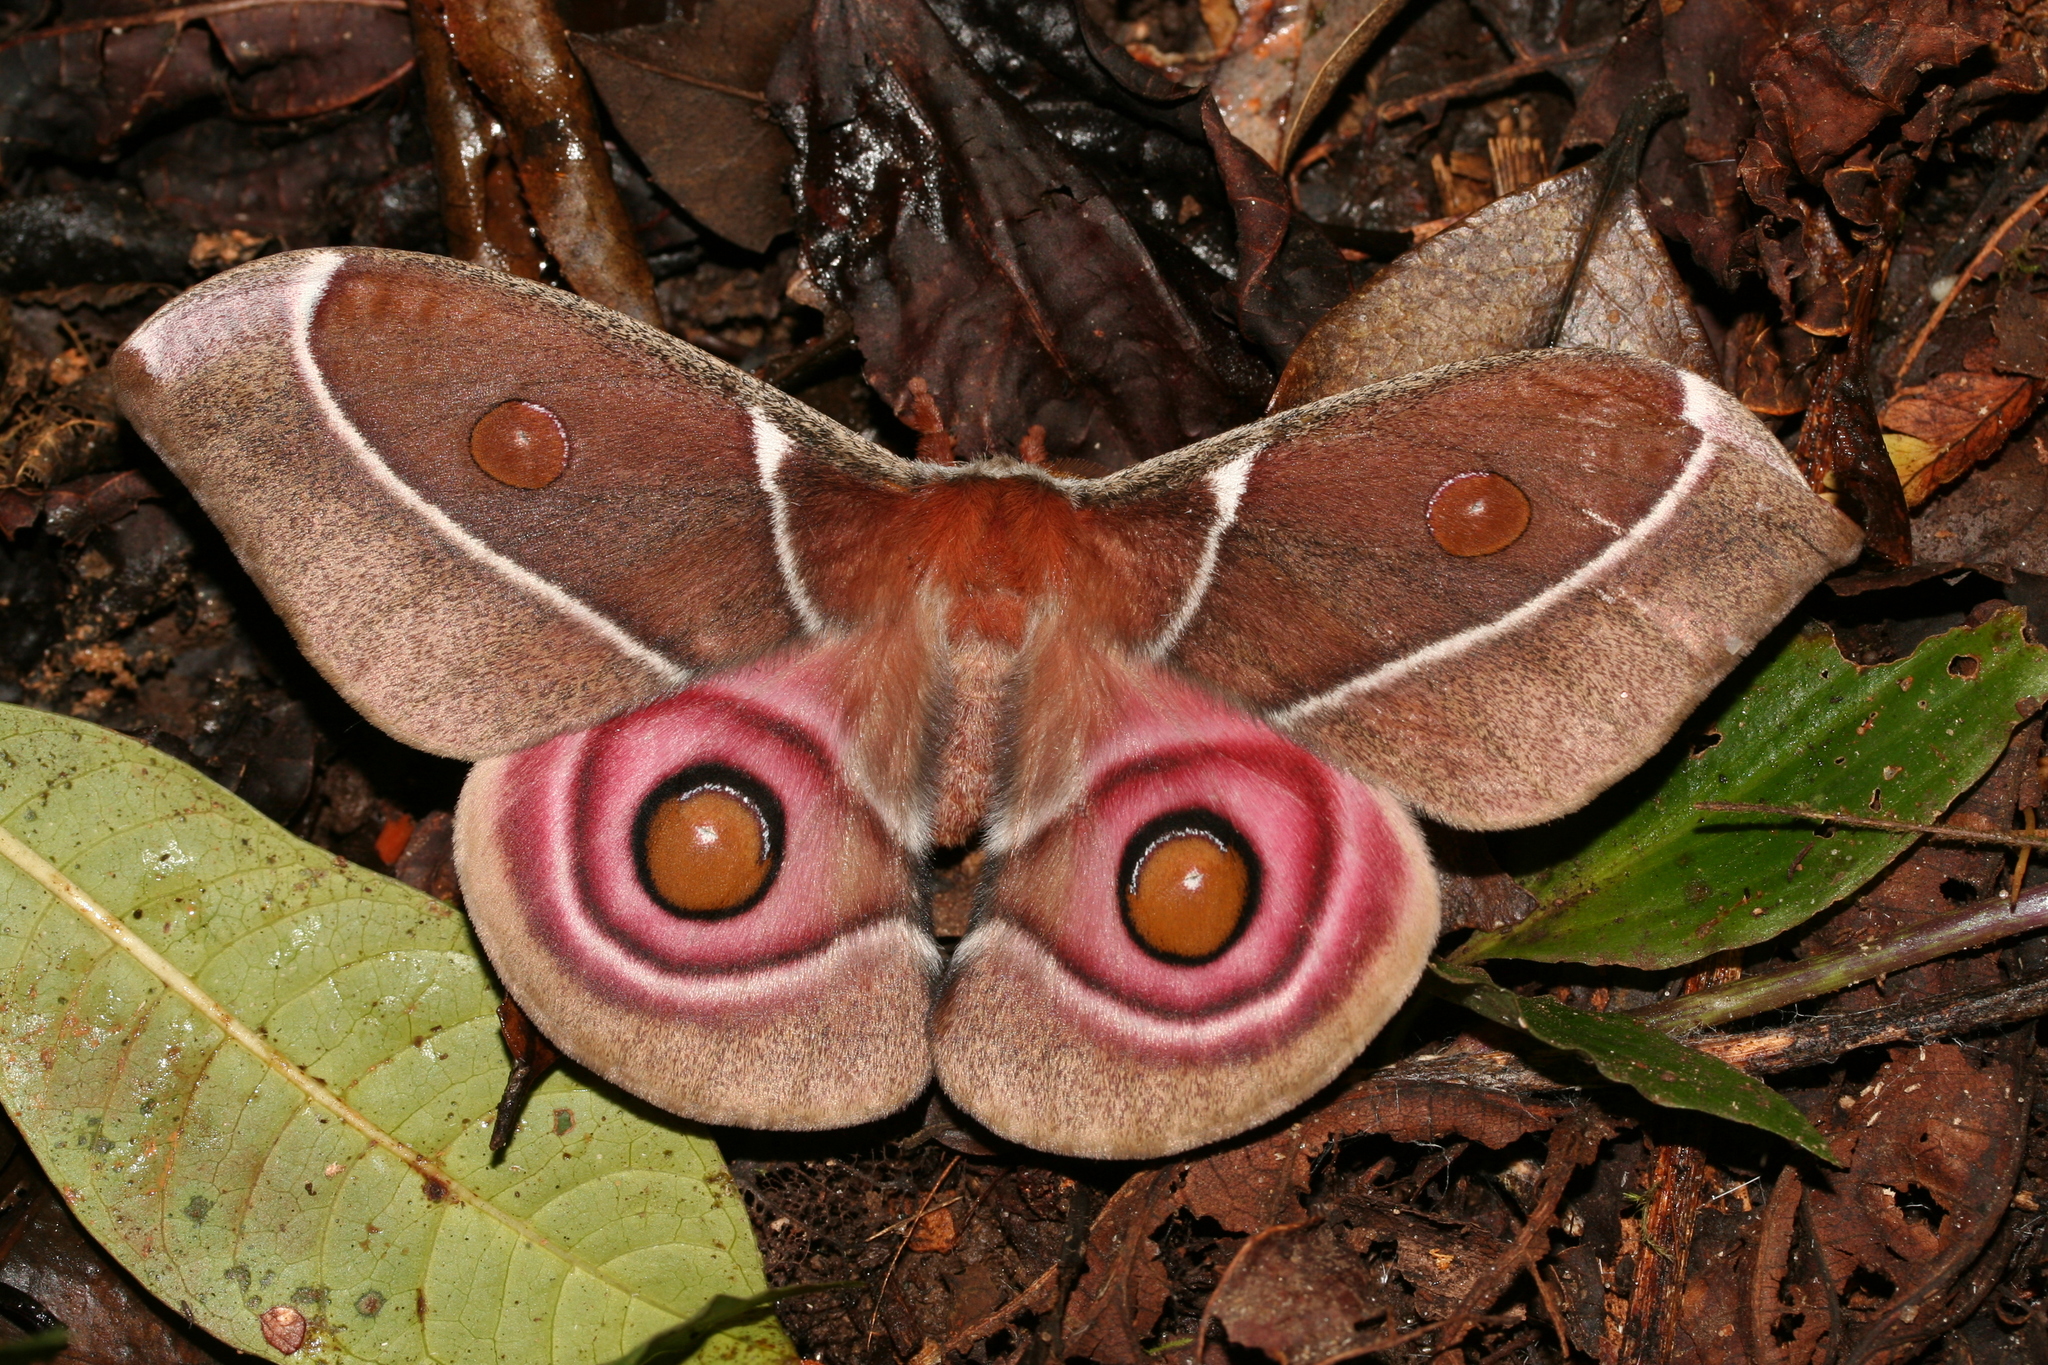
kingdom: Animalia
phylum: Arthropoda
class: Insecta
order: Lepidoptera
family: Saturniidae
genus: Antherina
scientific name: Antherina suraka
